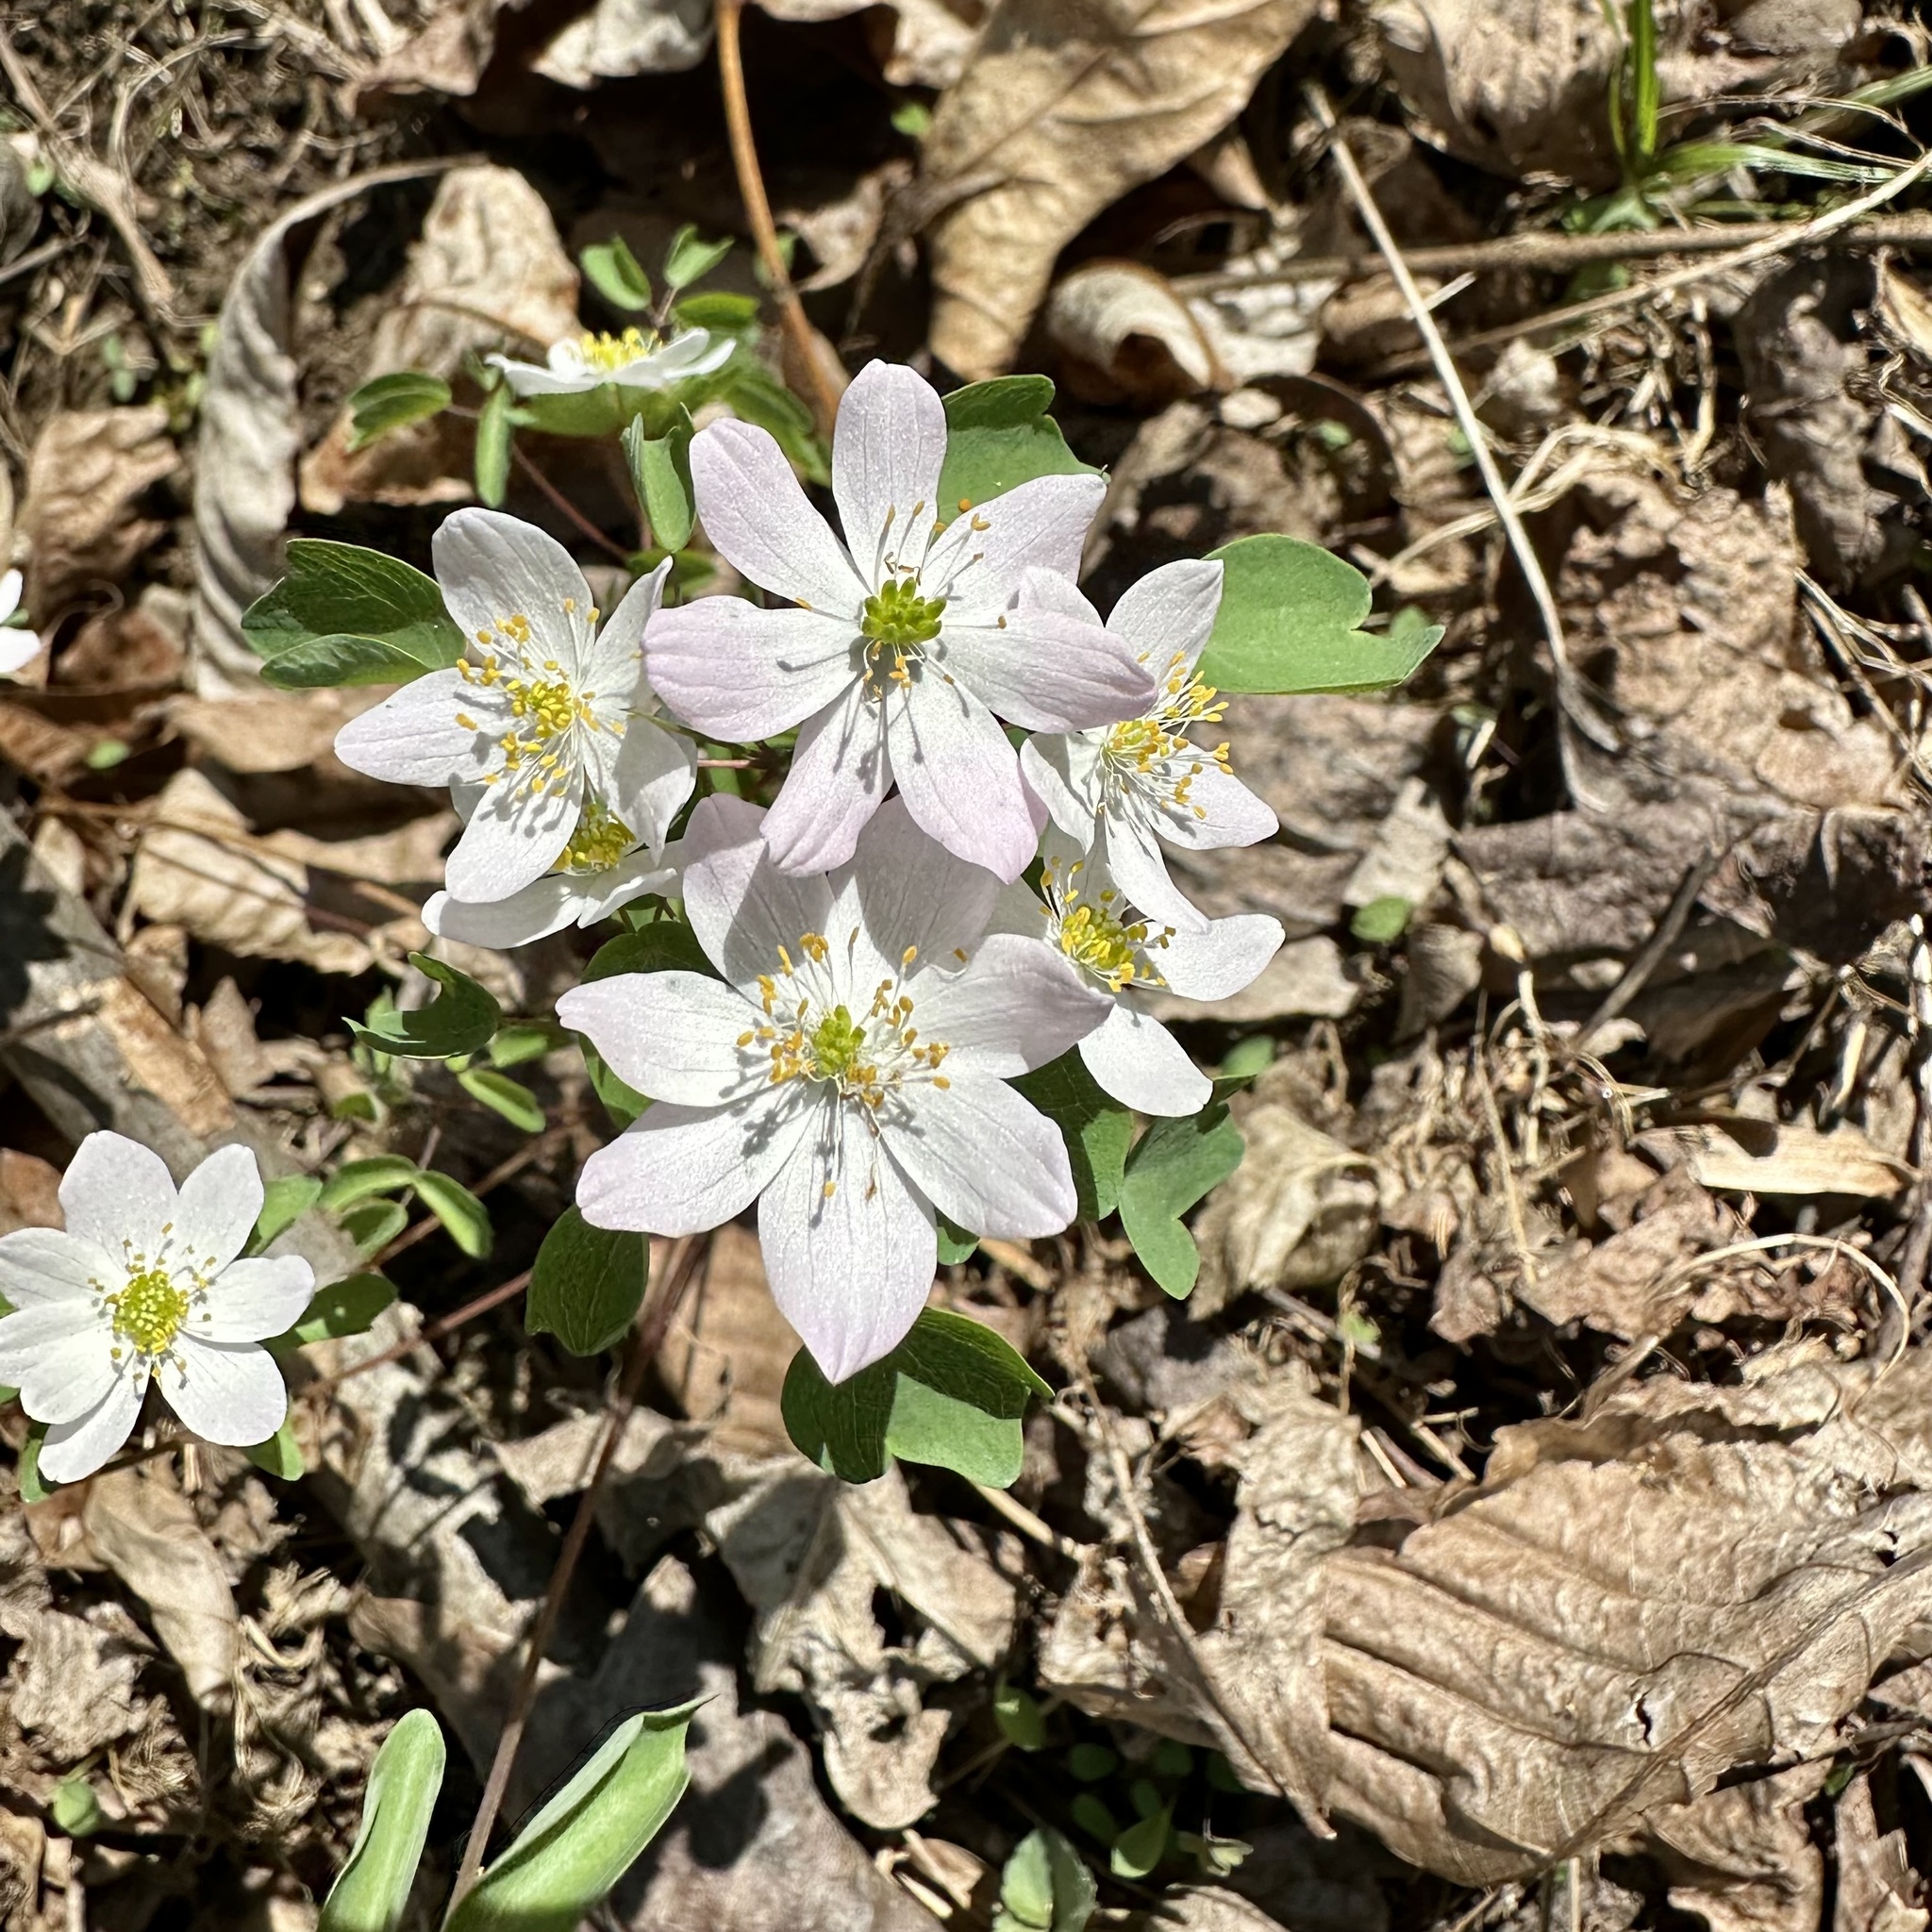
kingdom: Plantae
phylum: Tracheophyta
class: Magnoliopsida
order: Ranunculales
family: Ranunculaceae
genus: Thalictrum
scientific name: Thalictrum thalictroides
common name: Rue-anemone
